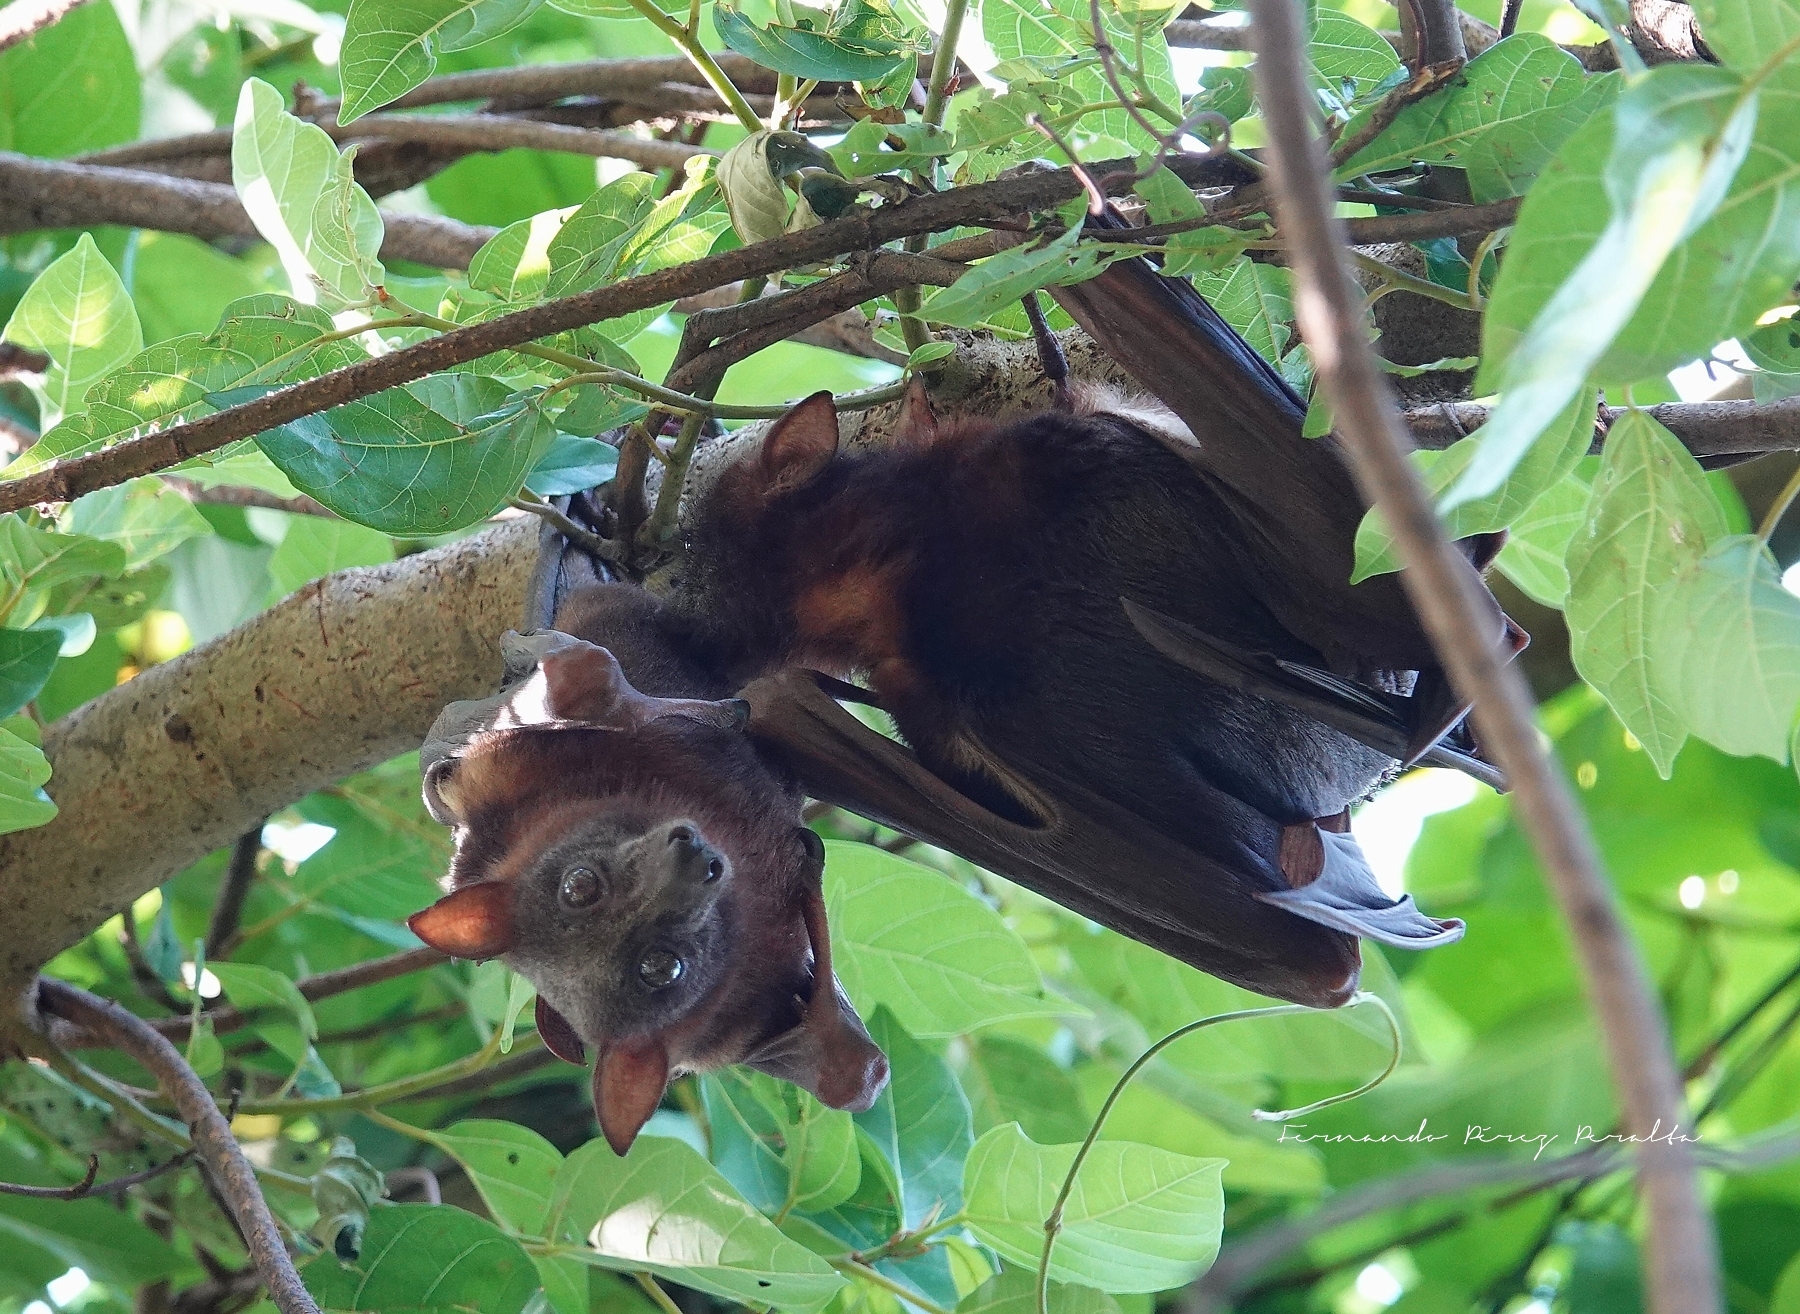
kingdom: Animalia
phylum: Chordata
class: Mammalia
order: Chiroptera
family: Pteropodidae
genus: Pteropus
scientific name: Pteropus scapulatus
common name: Little red flying fox
